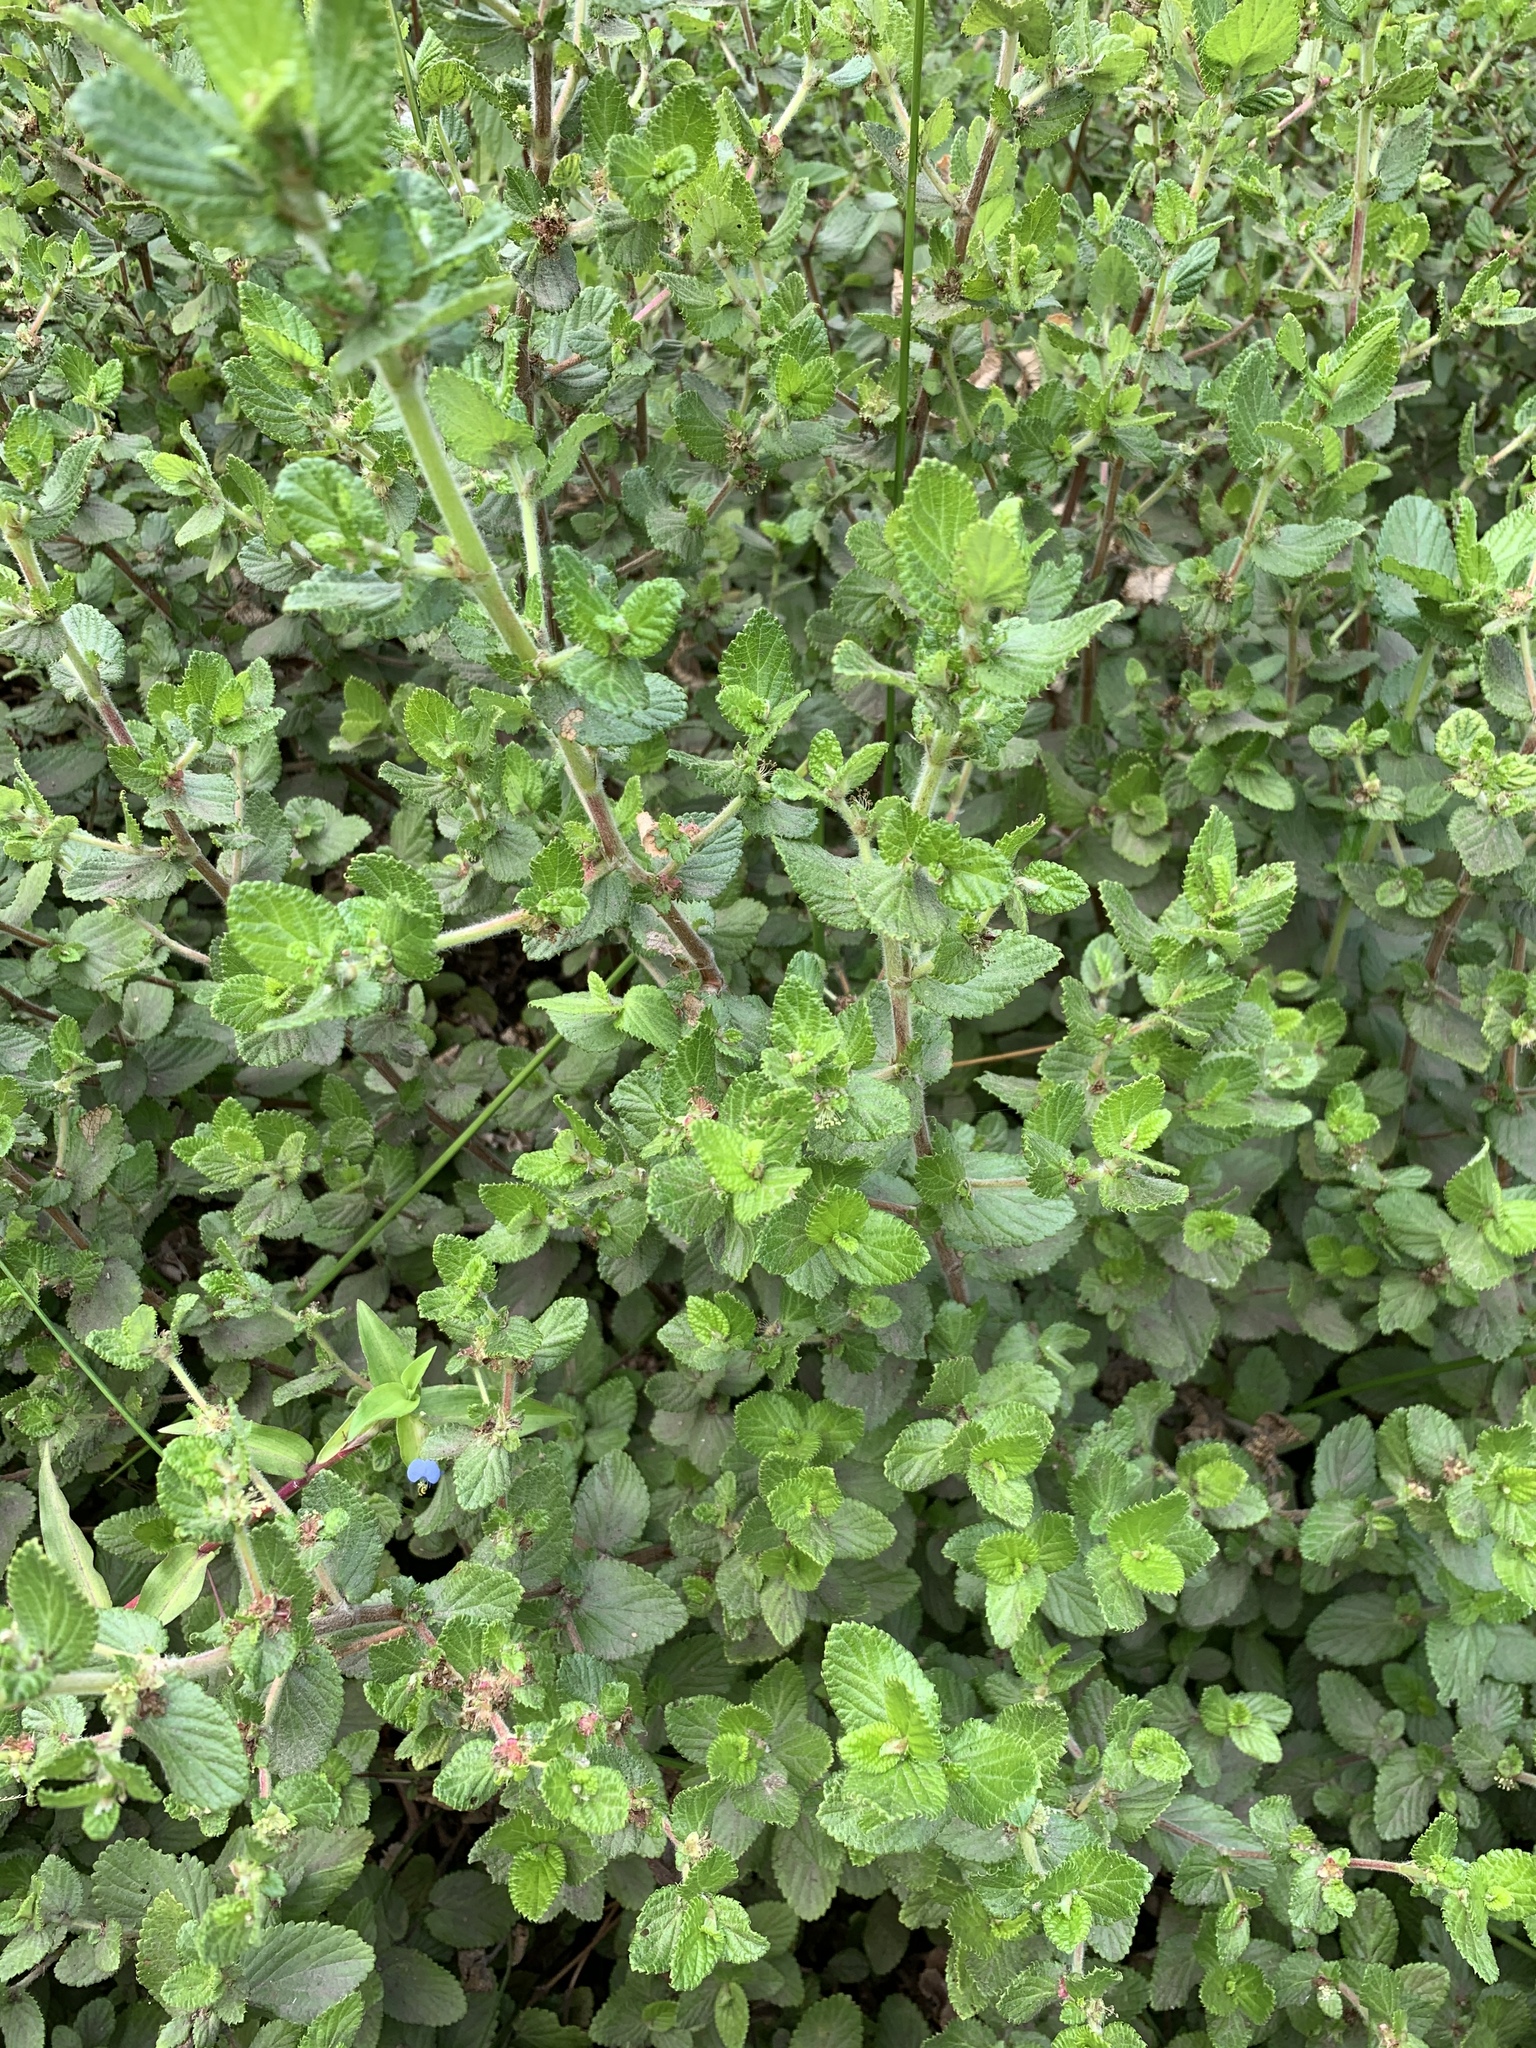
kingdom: Plantae
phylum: Tracheophyta
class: Magnoliopsida
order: Rosales
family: Rosaceae
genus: Cliffortia
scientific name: Cliffortia odorata
